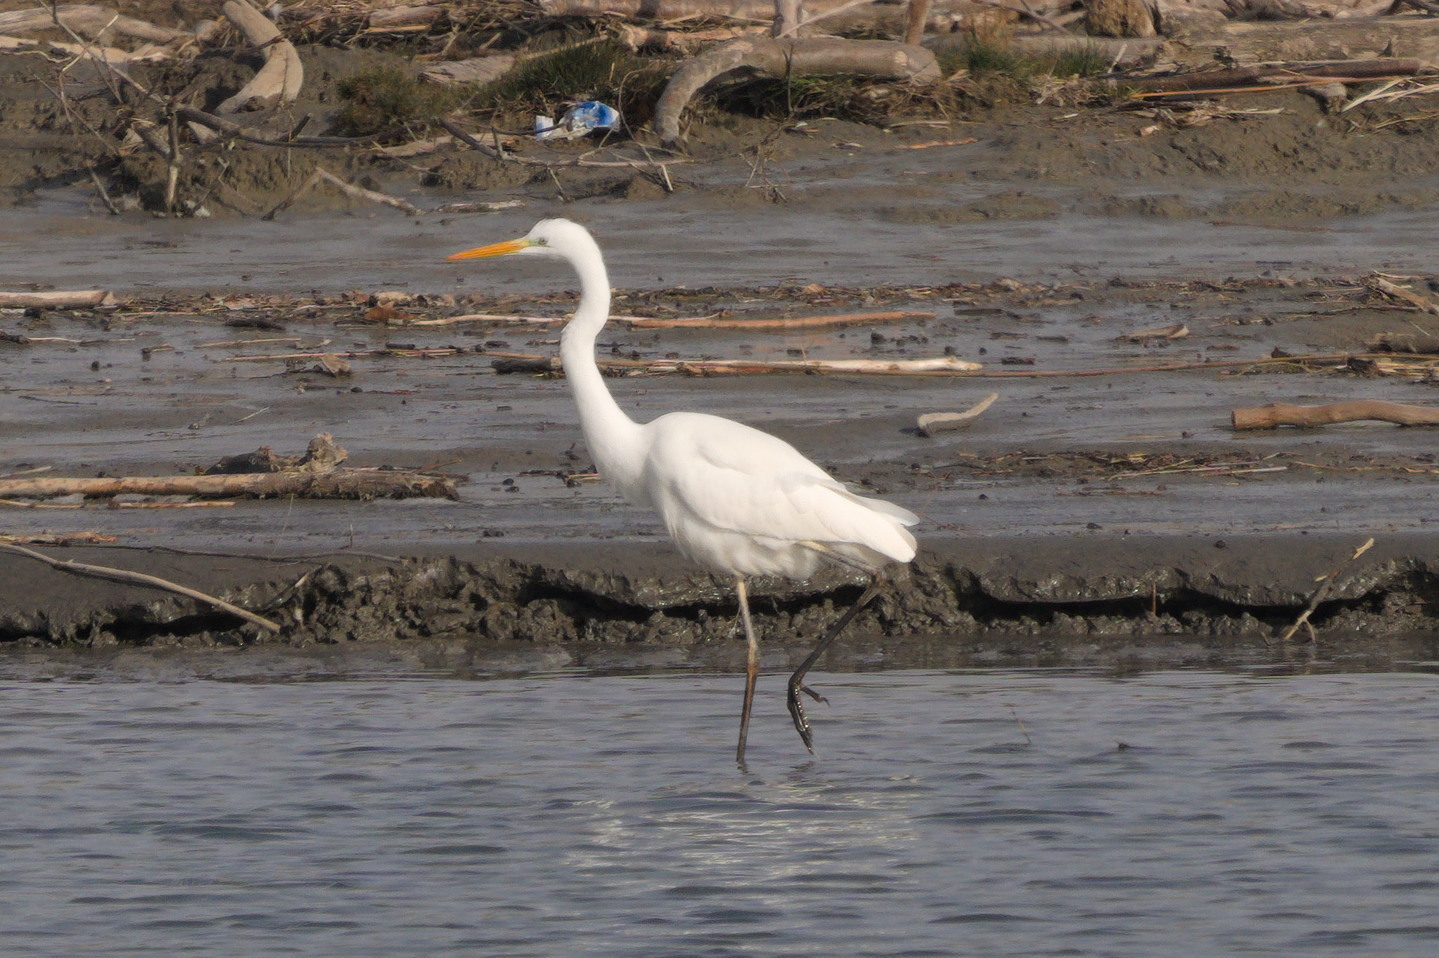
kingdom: Animalia
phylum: Chordata
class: Aves
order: Pelecaniformes
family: Ardeidae
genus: Ardea
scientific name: Ardea alba
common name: Great egret
